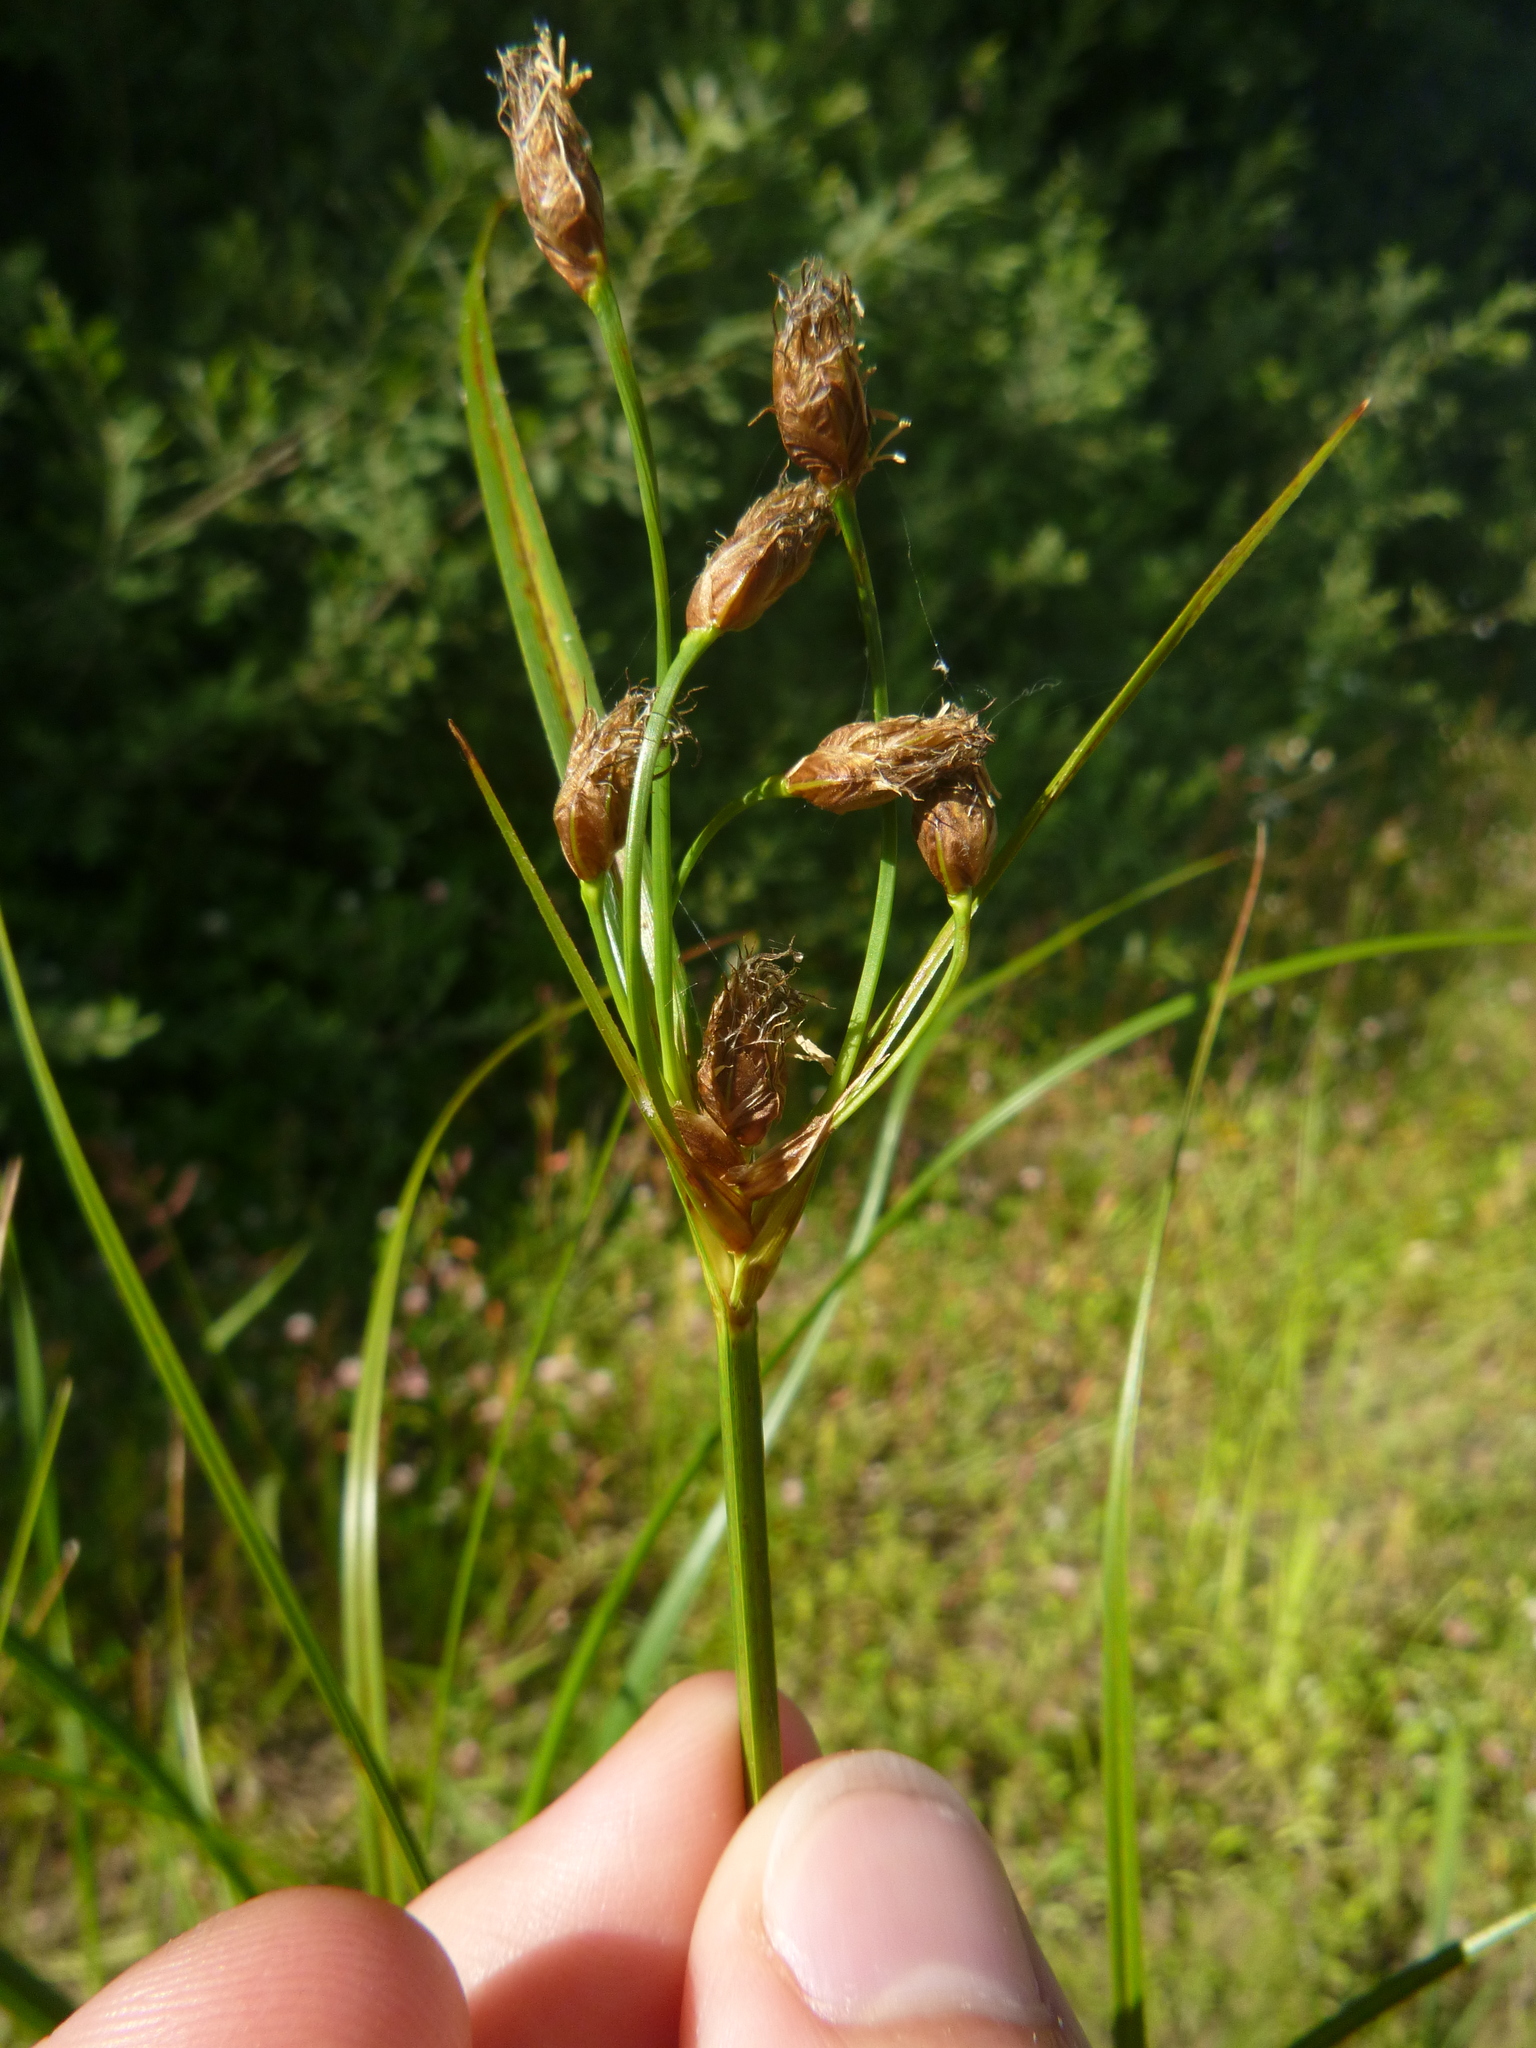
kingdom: Plantae
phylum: Tracheophyta
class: Liliopsida
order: Poales
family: Cyperaceae
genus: Bolboschoenus
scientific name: Bolboschoenus yagara
